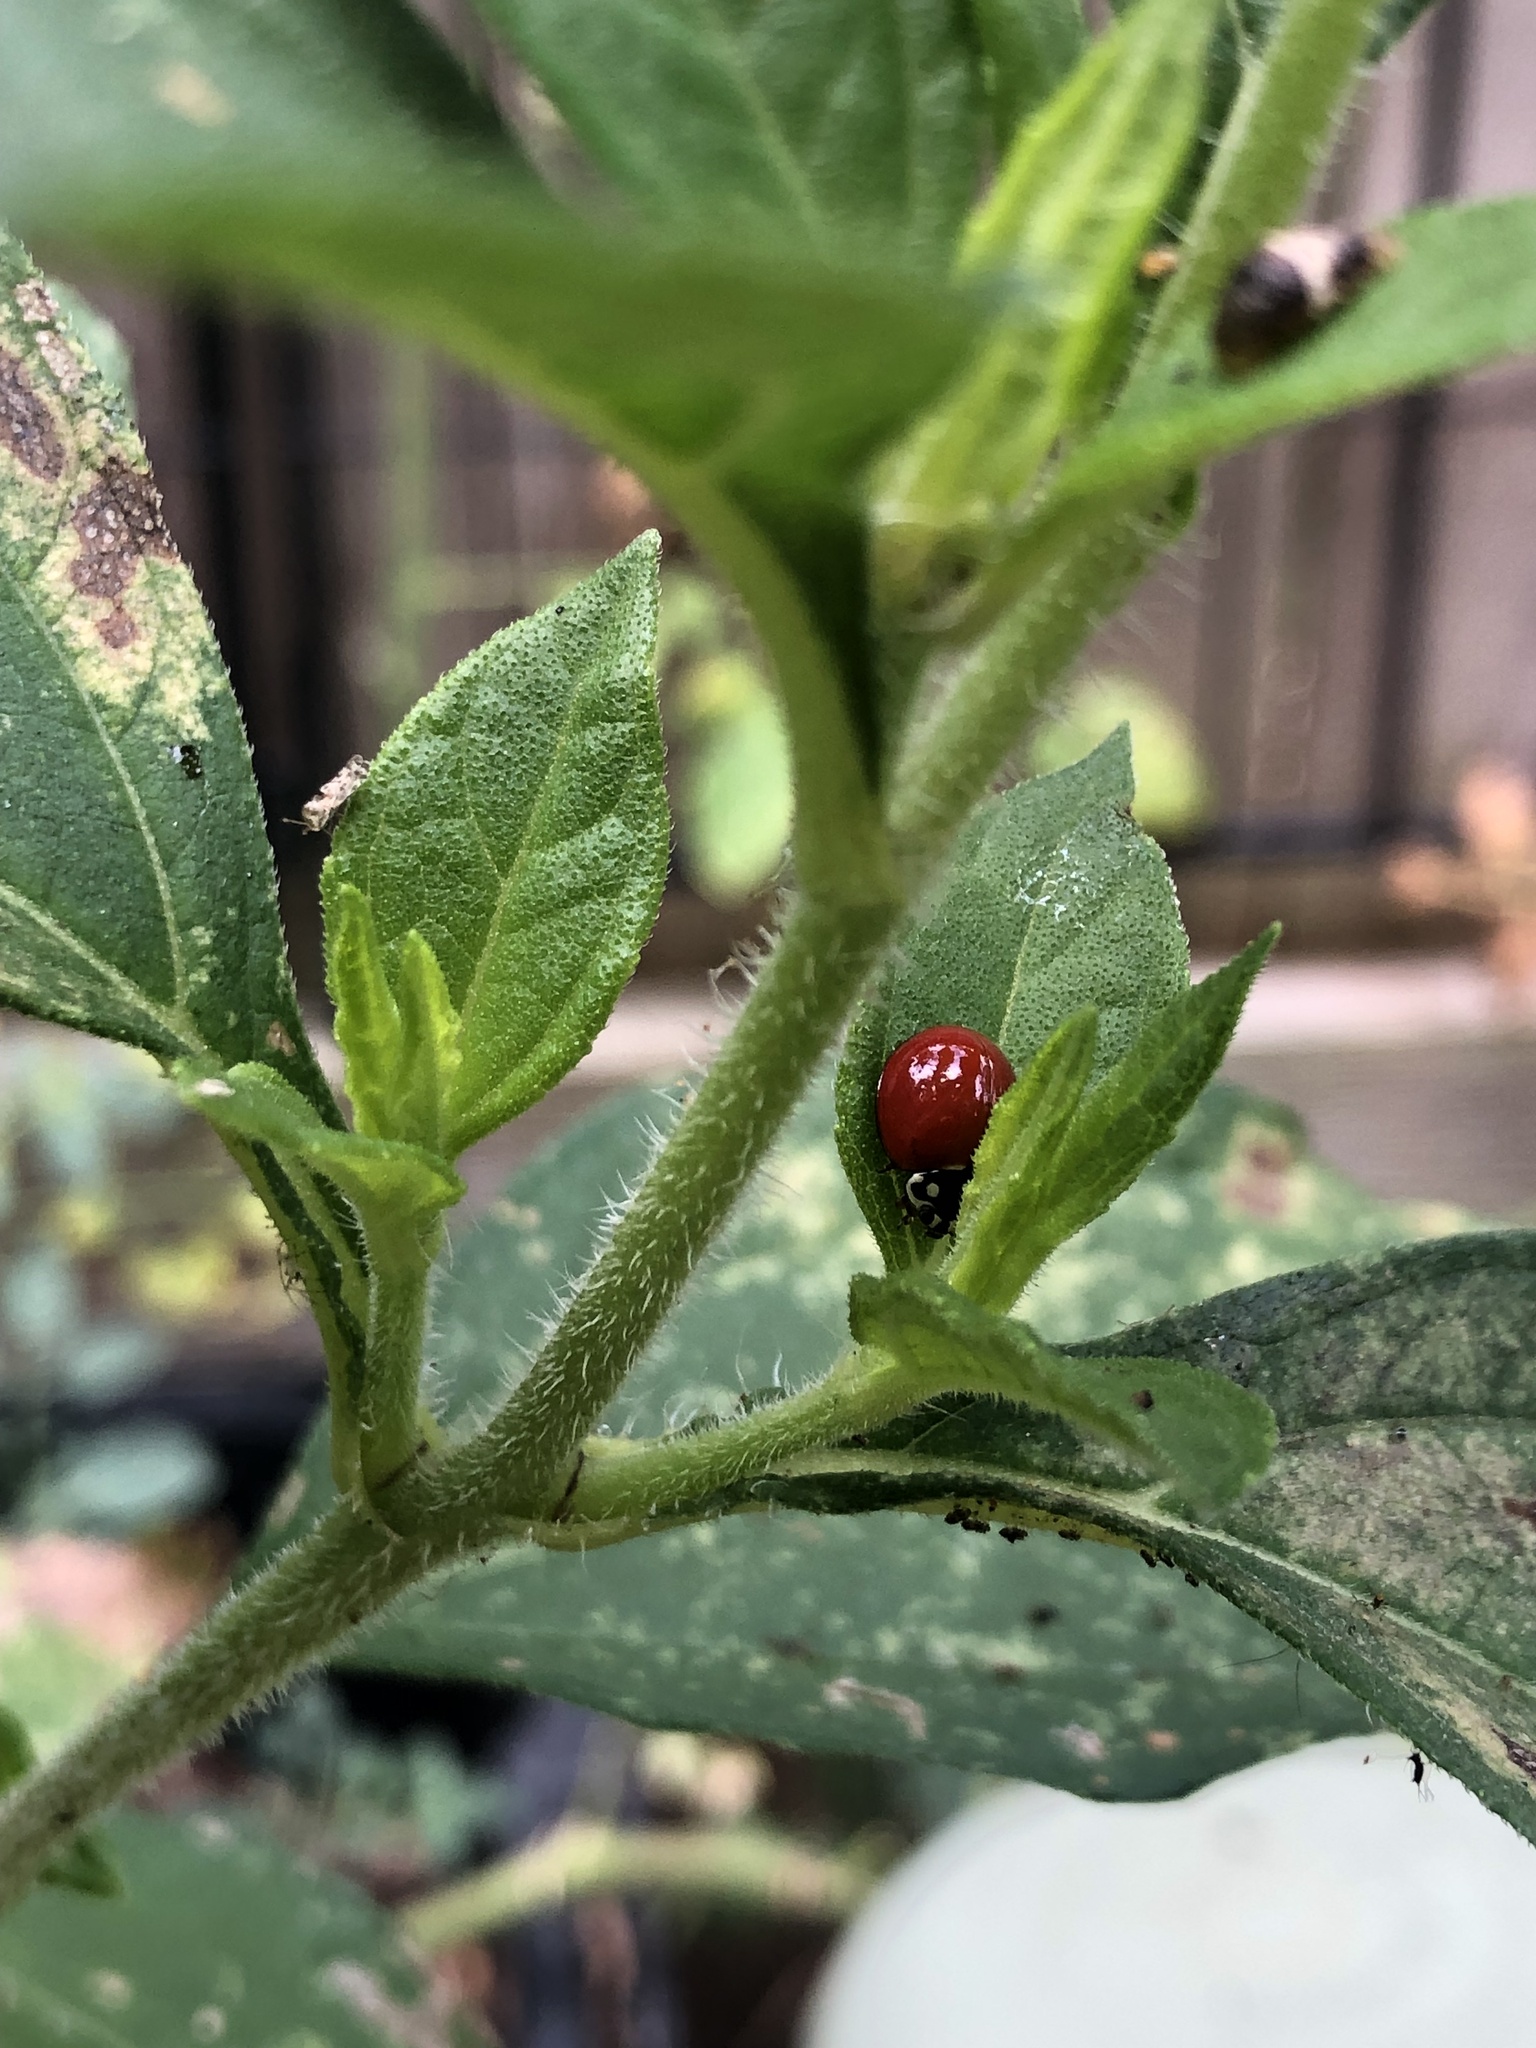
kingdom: Animalia
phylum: Arthropoda
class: Insecta
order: Coleoptera
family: Coccinellidae
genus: Cycloneda
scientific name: Cycloneda sanguinea
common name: Ladybird beetle
